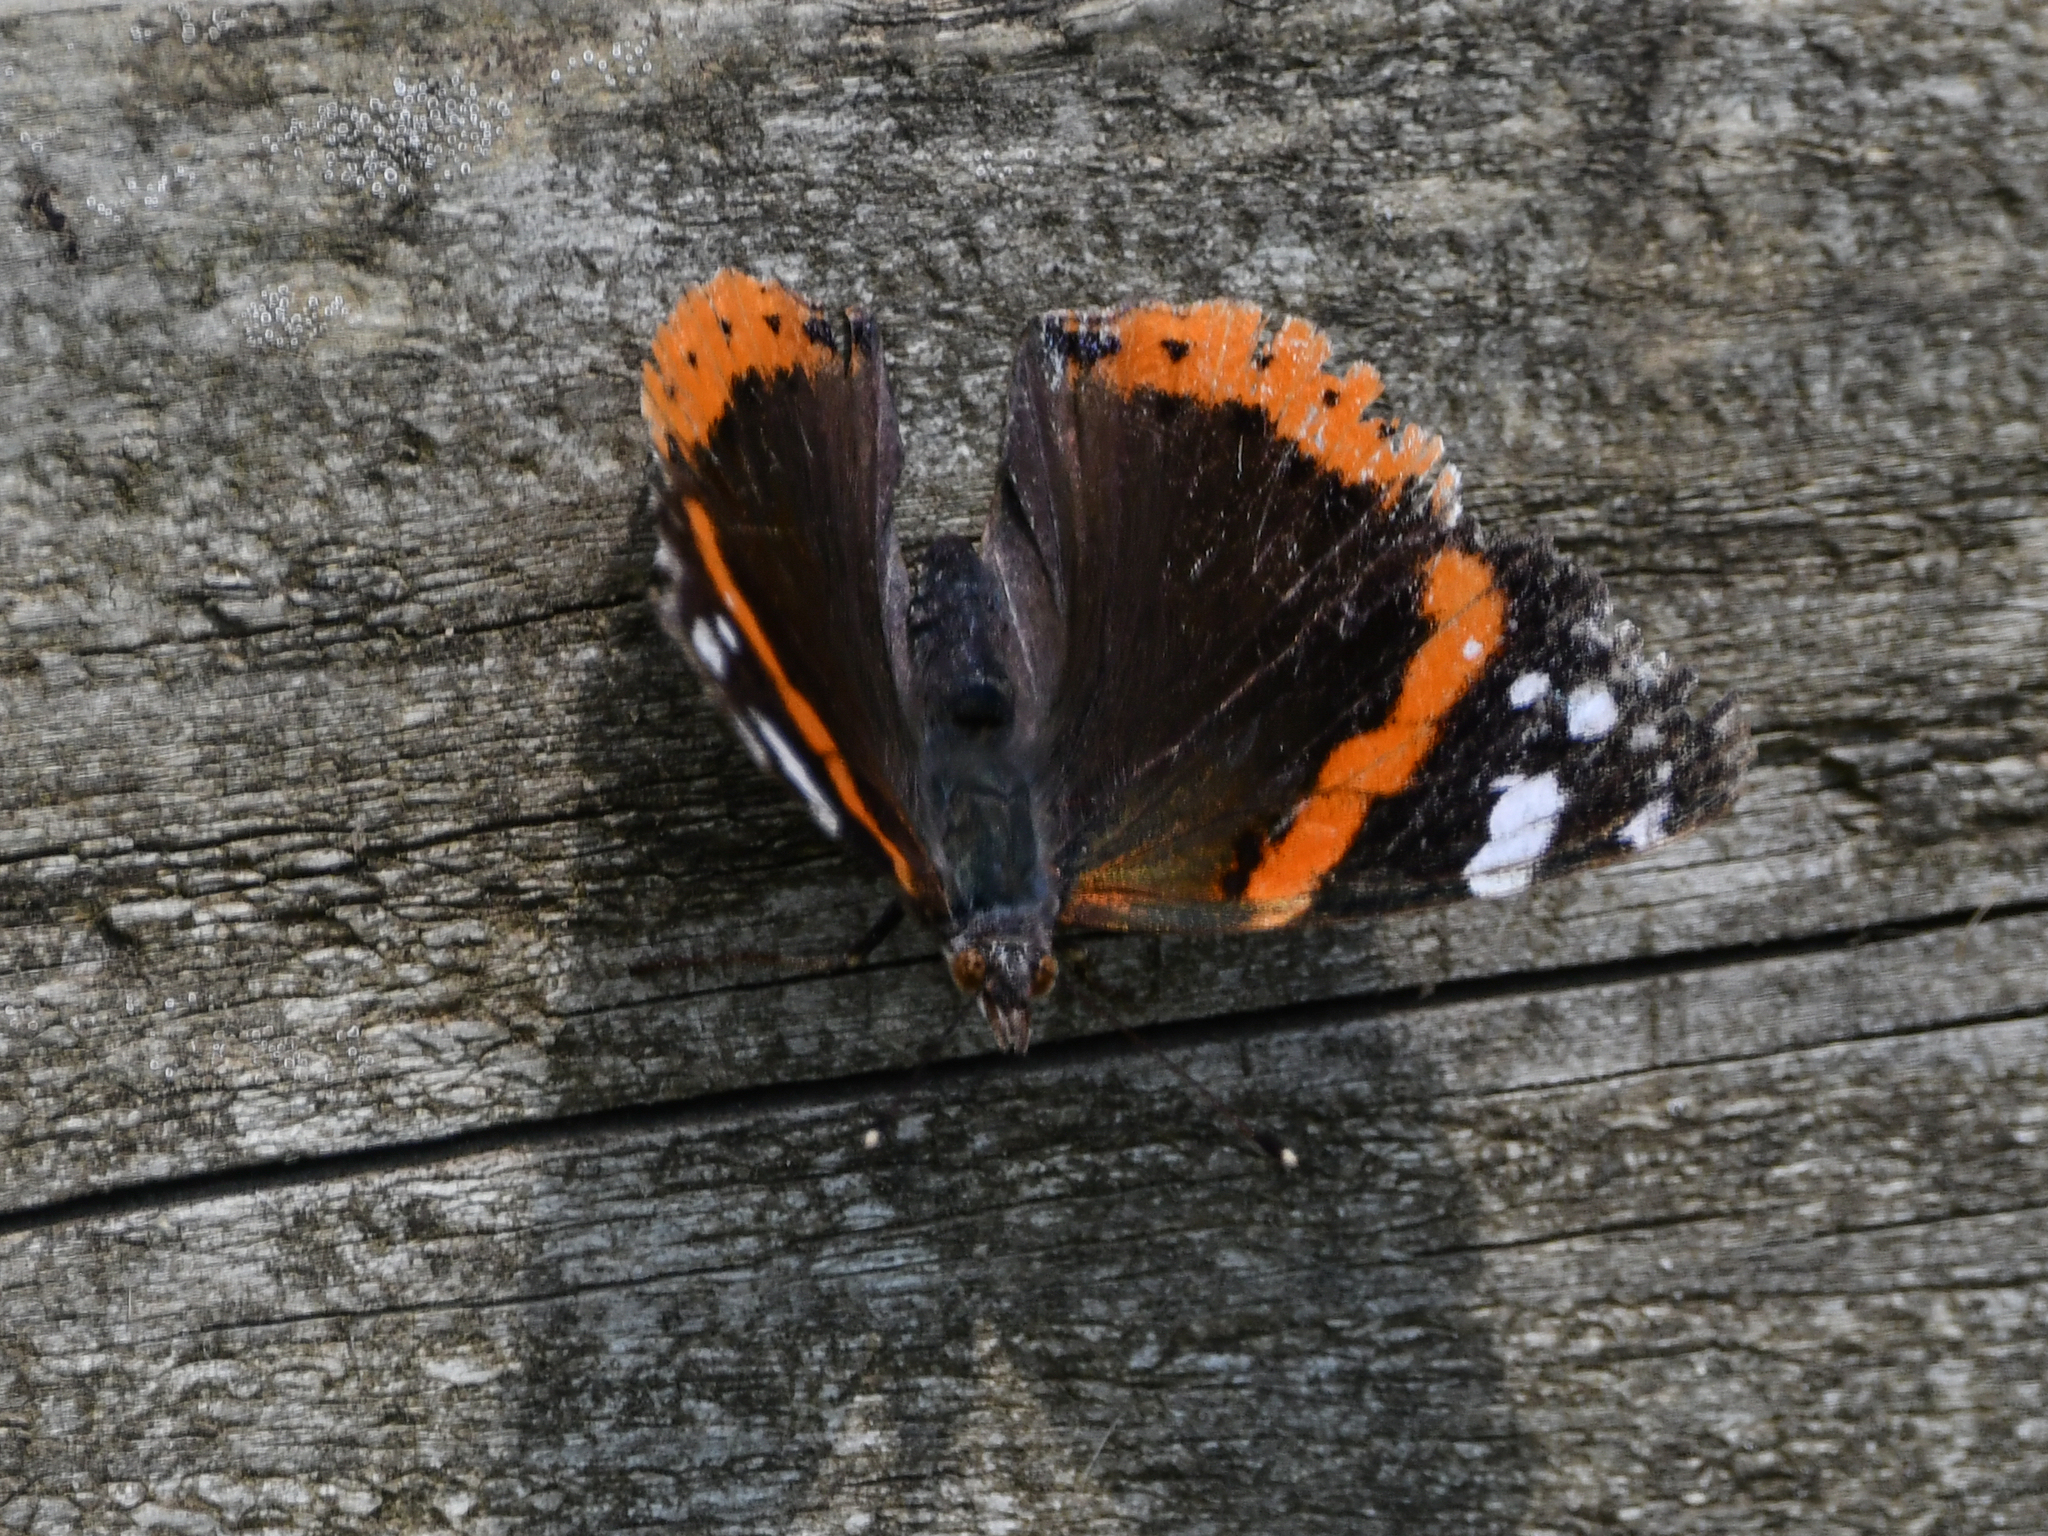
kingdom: Animalia
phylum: Arthropoda
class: Insecta
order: Lepidoptera
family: Nymphalidae
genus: Vanessa
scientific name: Vanessa atalanta
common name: Red admiral
